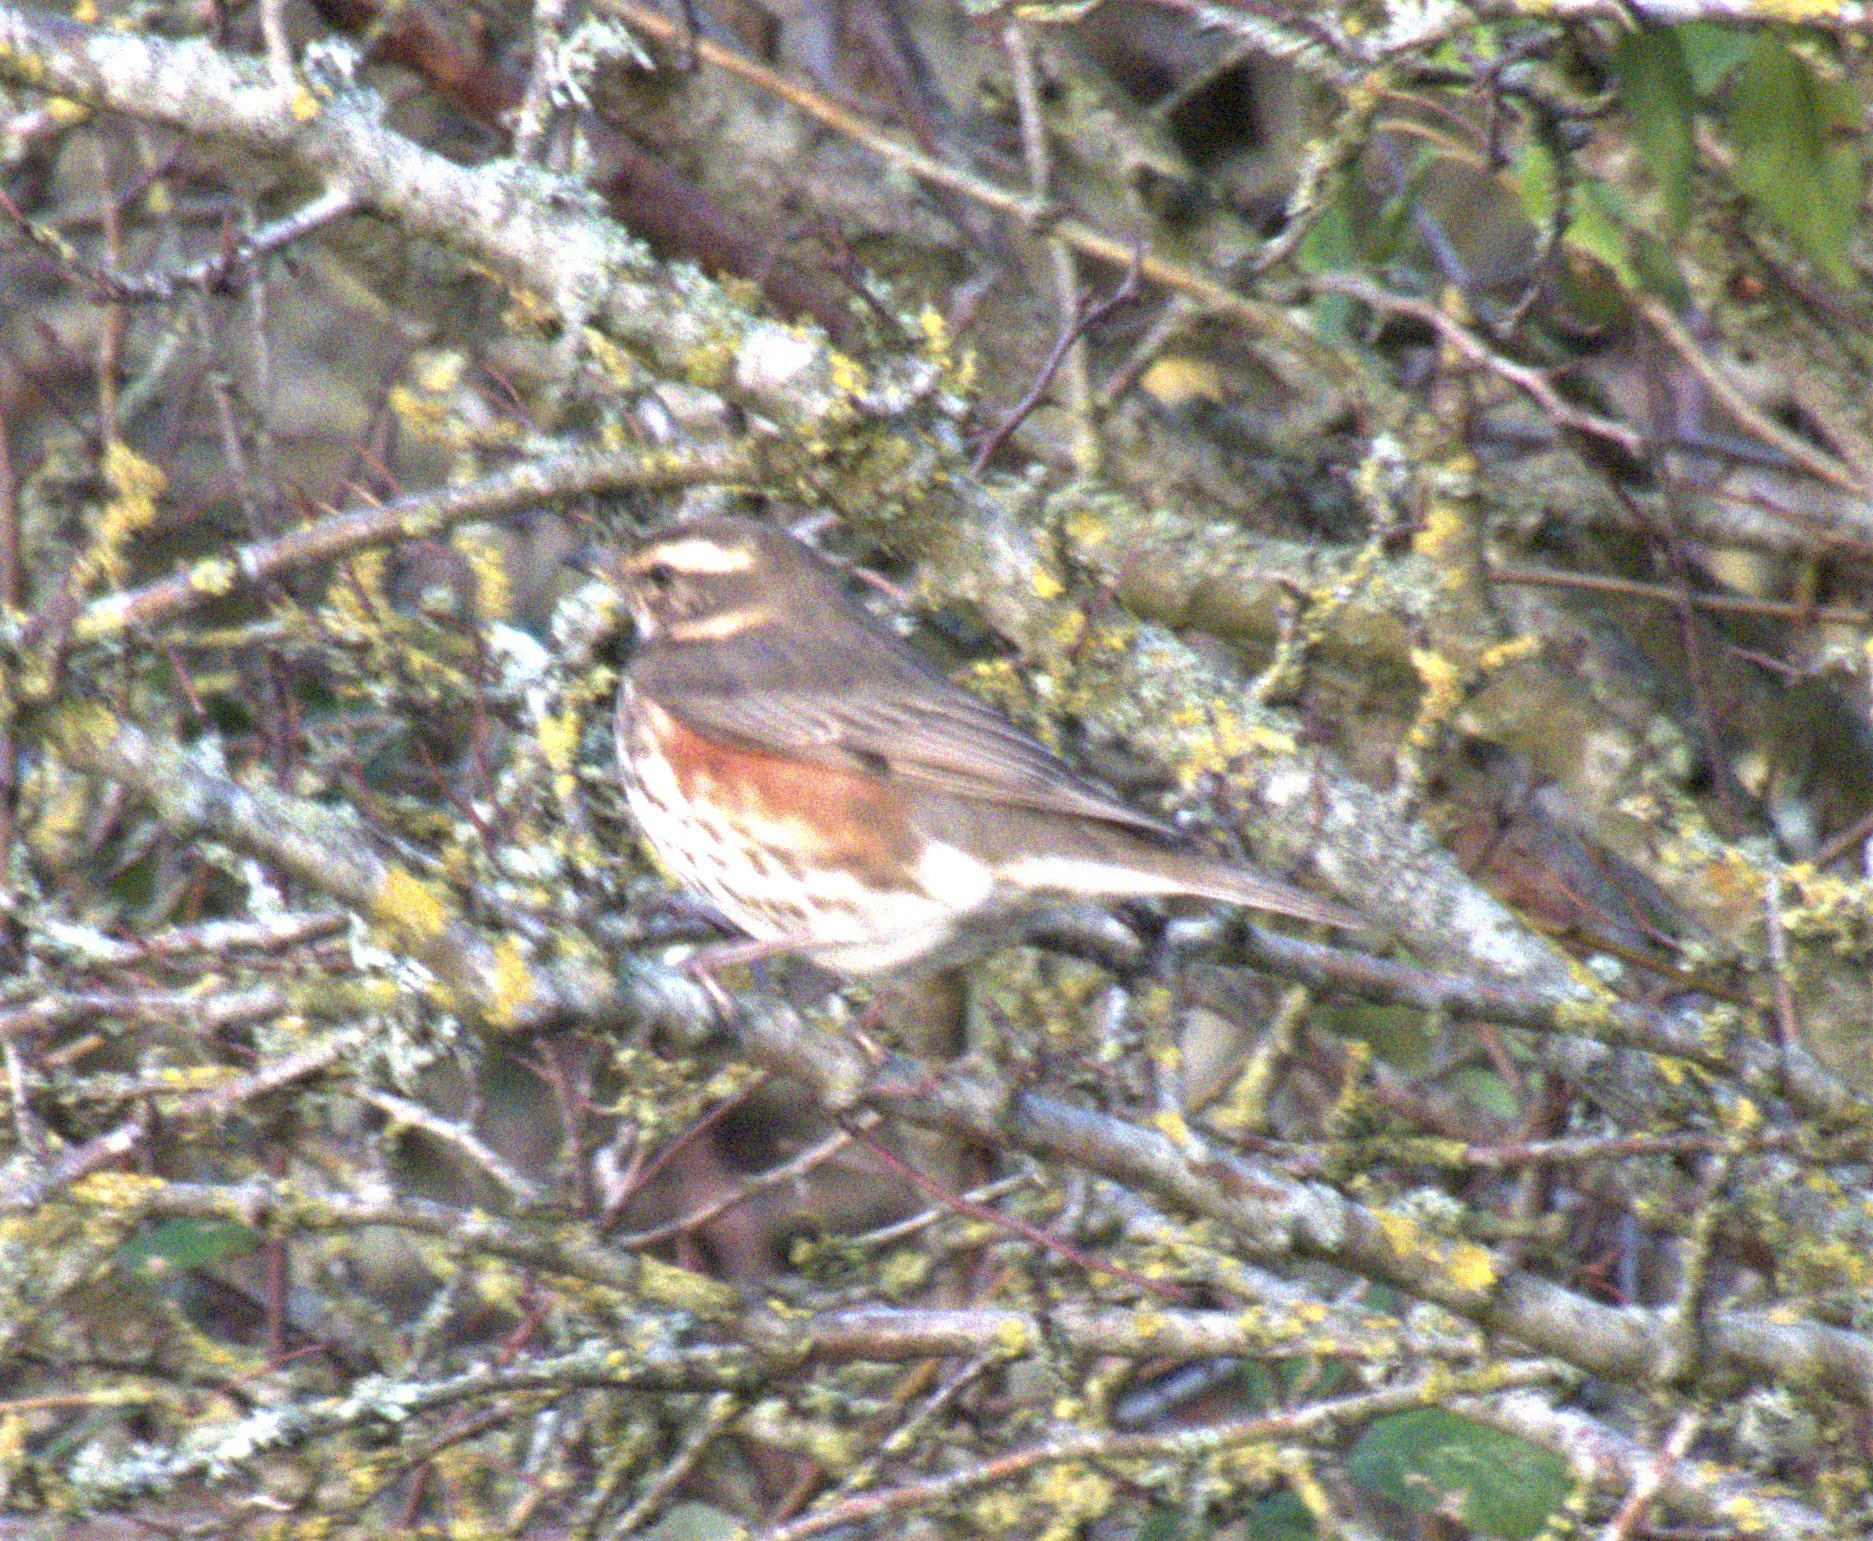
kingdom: Animalia
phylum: Chordata
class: Aves
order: Passeriformes
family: Turdidae
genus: Turdus
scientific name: Turdus iliacus
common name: Redwing
